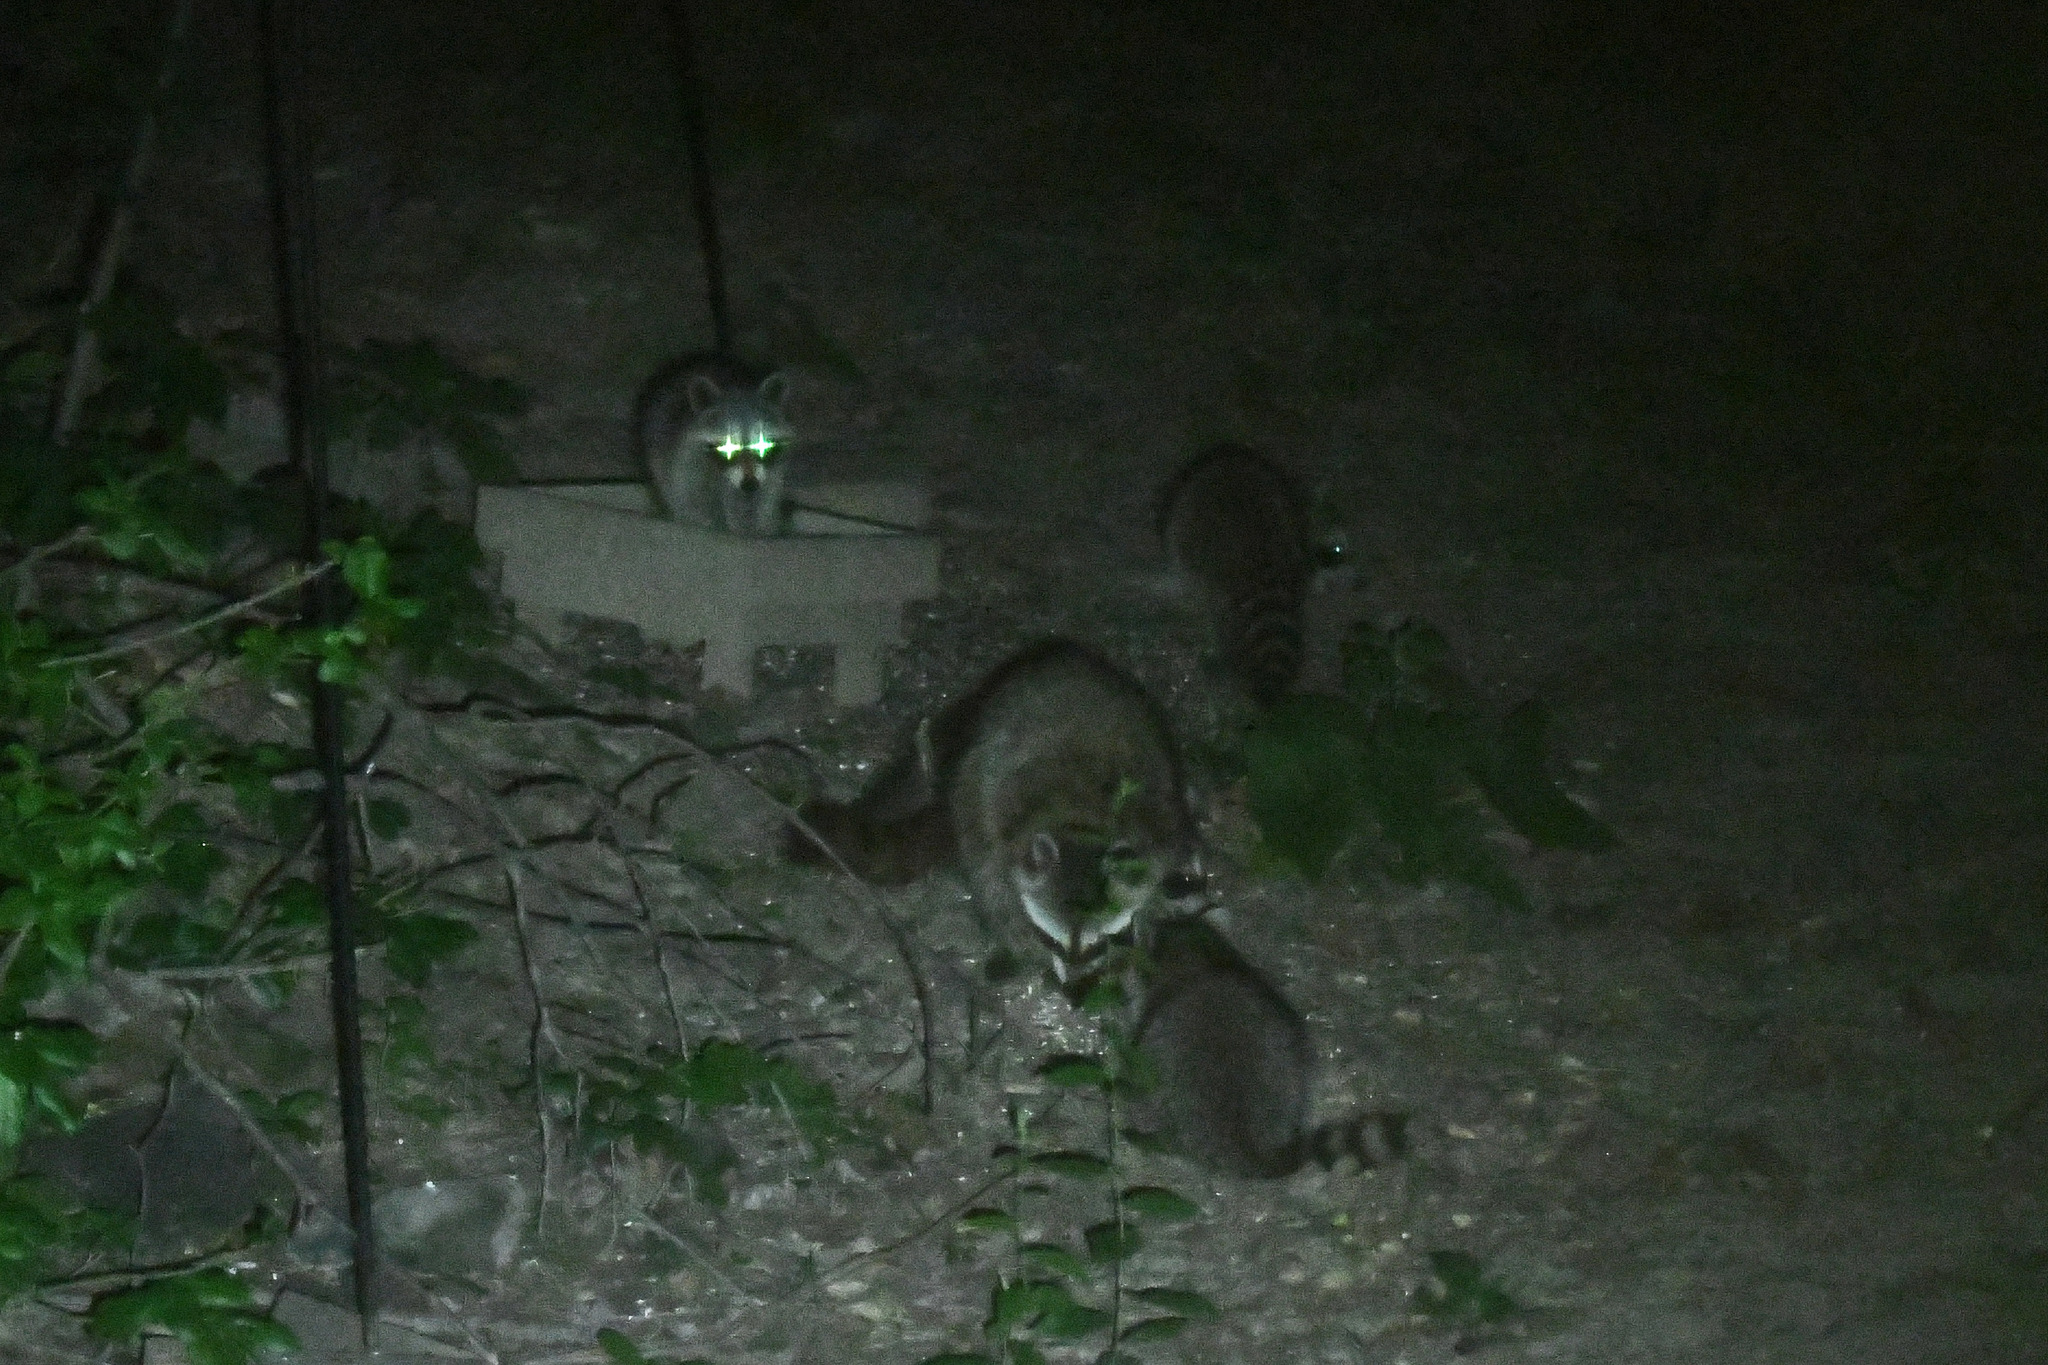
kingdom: Animalia
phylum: Chordata
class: Mammalia
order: Carnivora
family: Procyonidae
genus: Procyon
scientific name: Procyon lotor
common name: Raccoon
